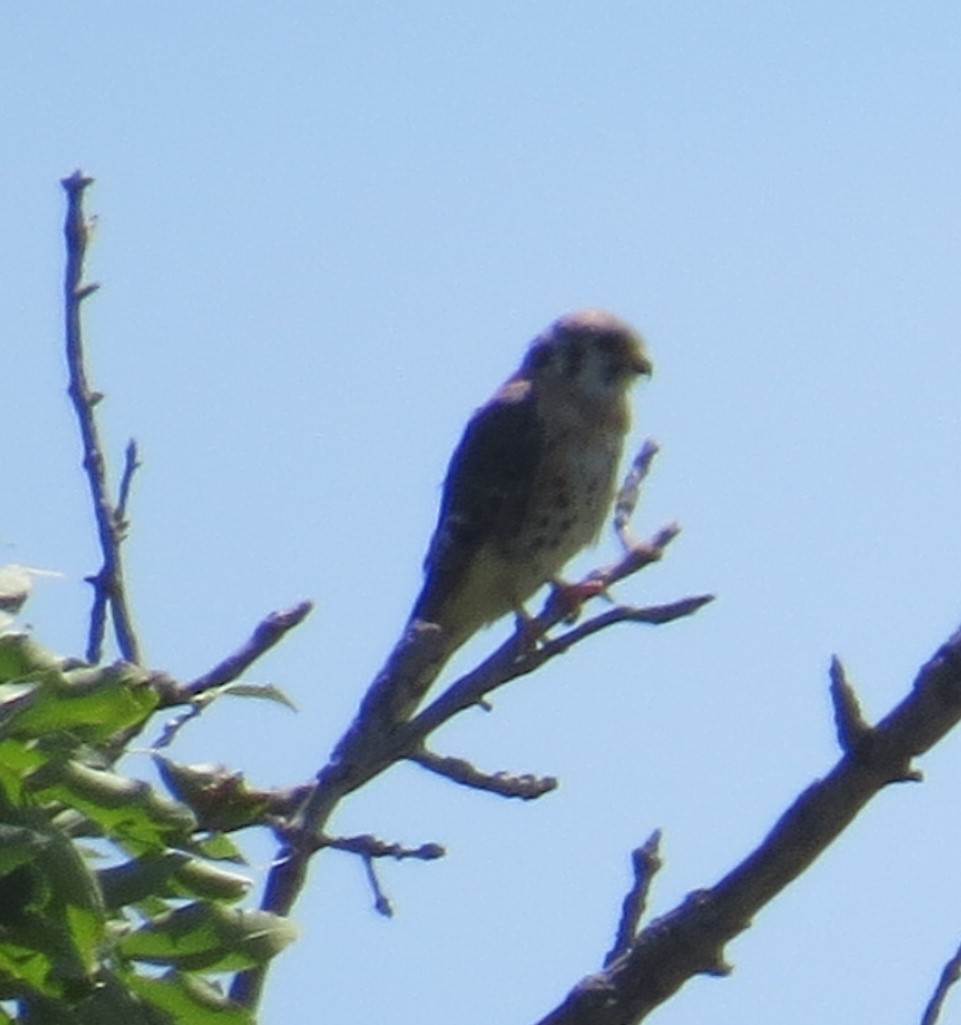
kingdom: Animalia
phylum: Chordata
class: Aves
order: Falconiformes
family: Falconidae
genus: Falco
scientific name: Falco sparverius
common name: American kestrel
